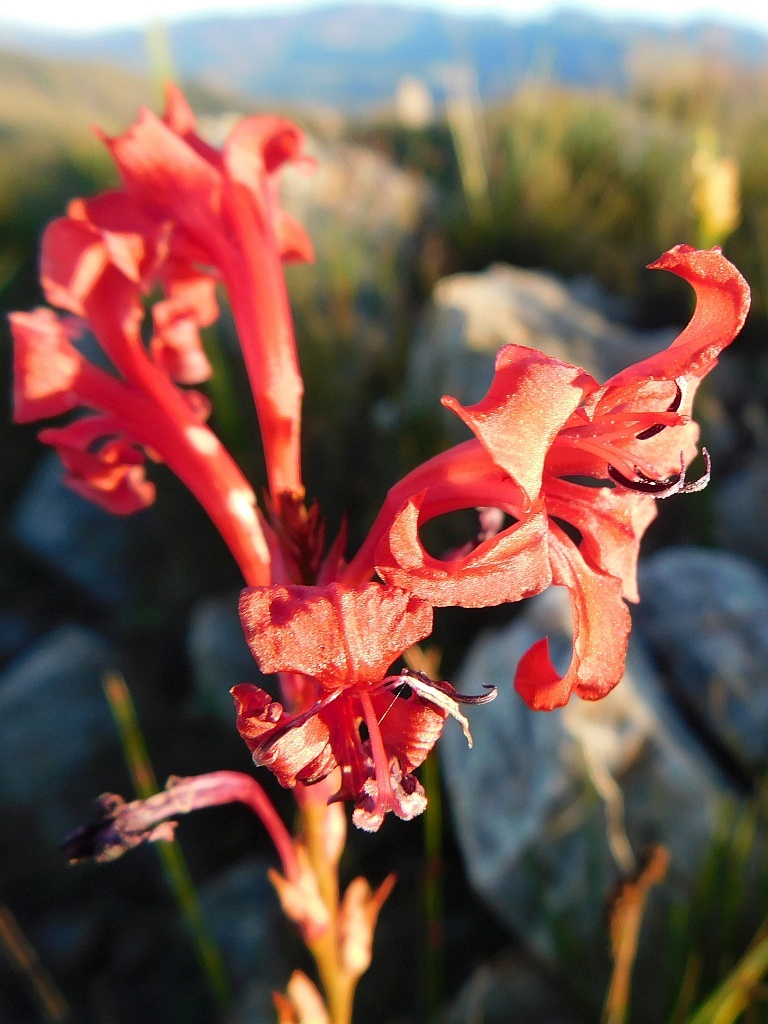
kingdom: Plantae
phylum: Tracheophyta
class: Liliopsida
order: Asparagales
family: Iridaceae
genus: Tritoniopsis
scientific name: Tritoniopsis pulchra
